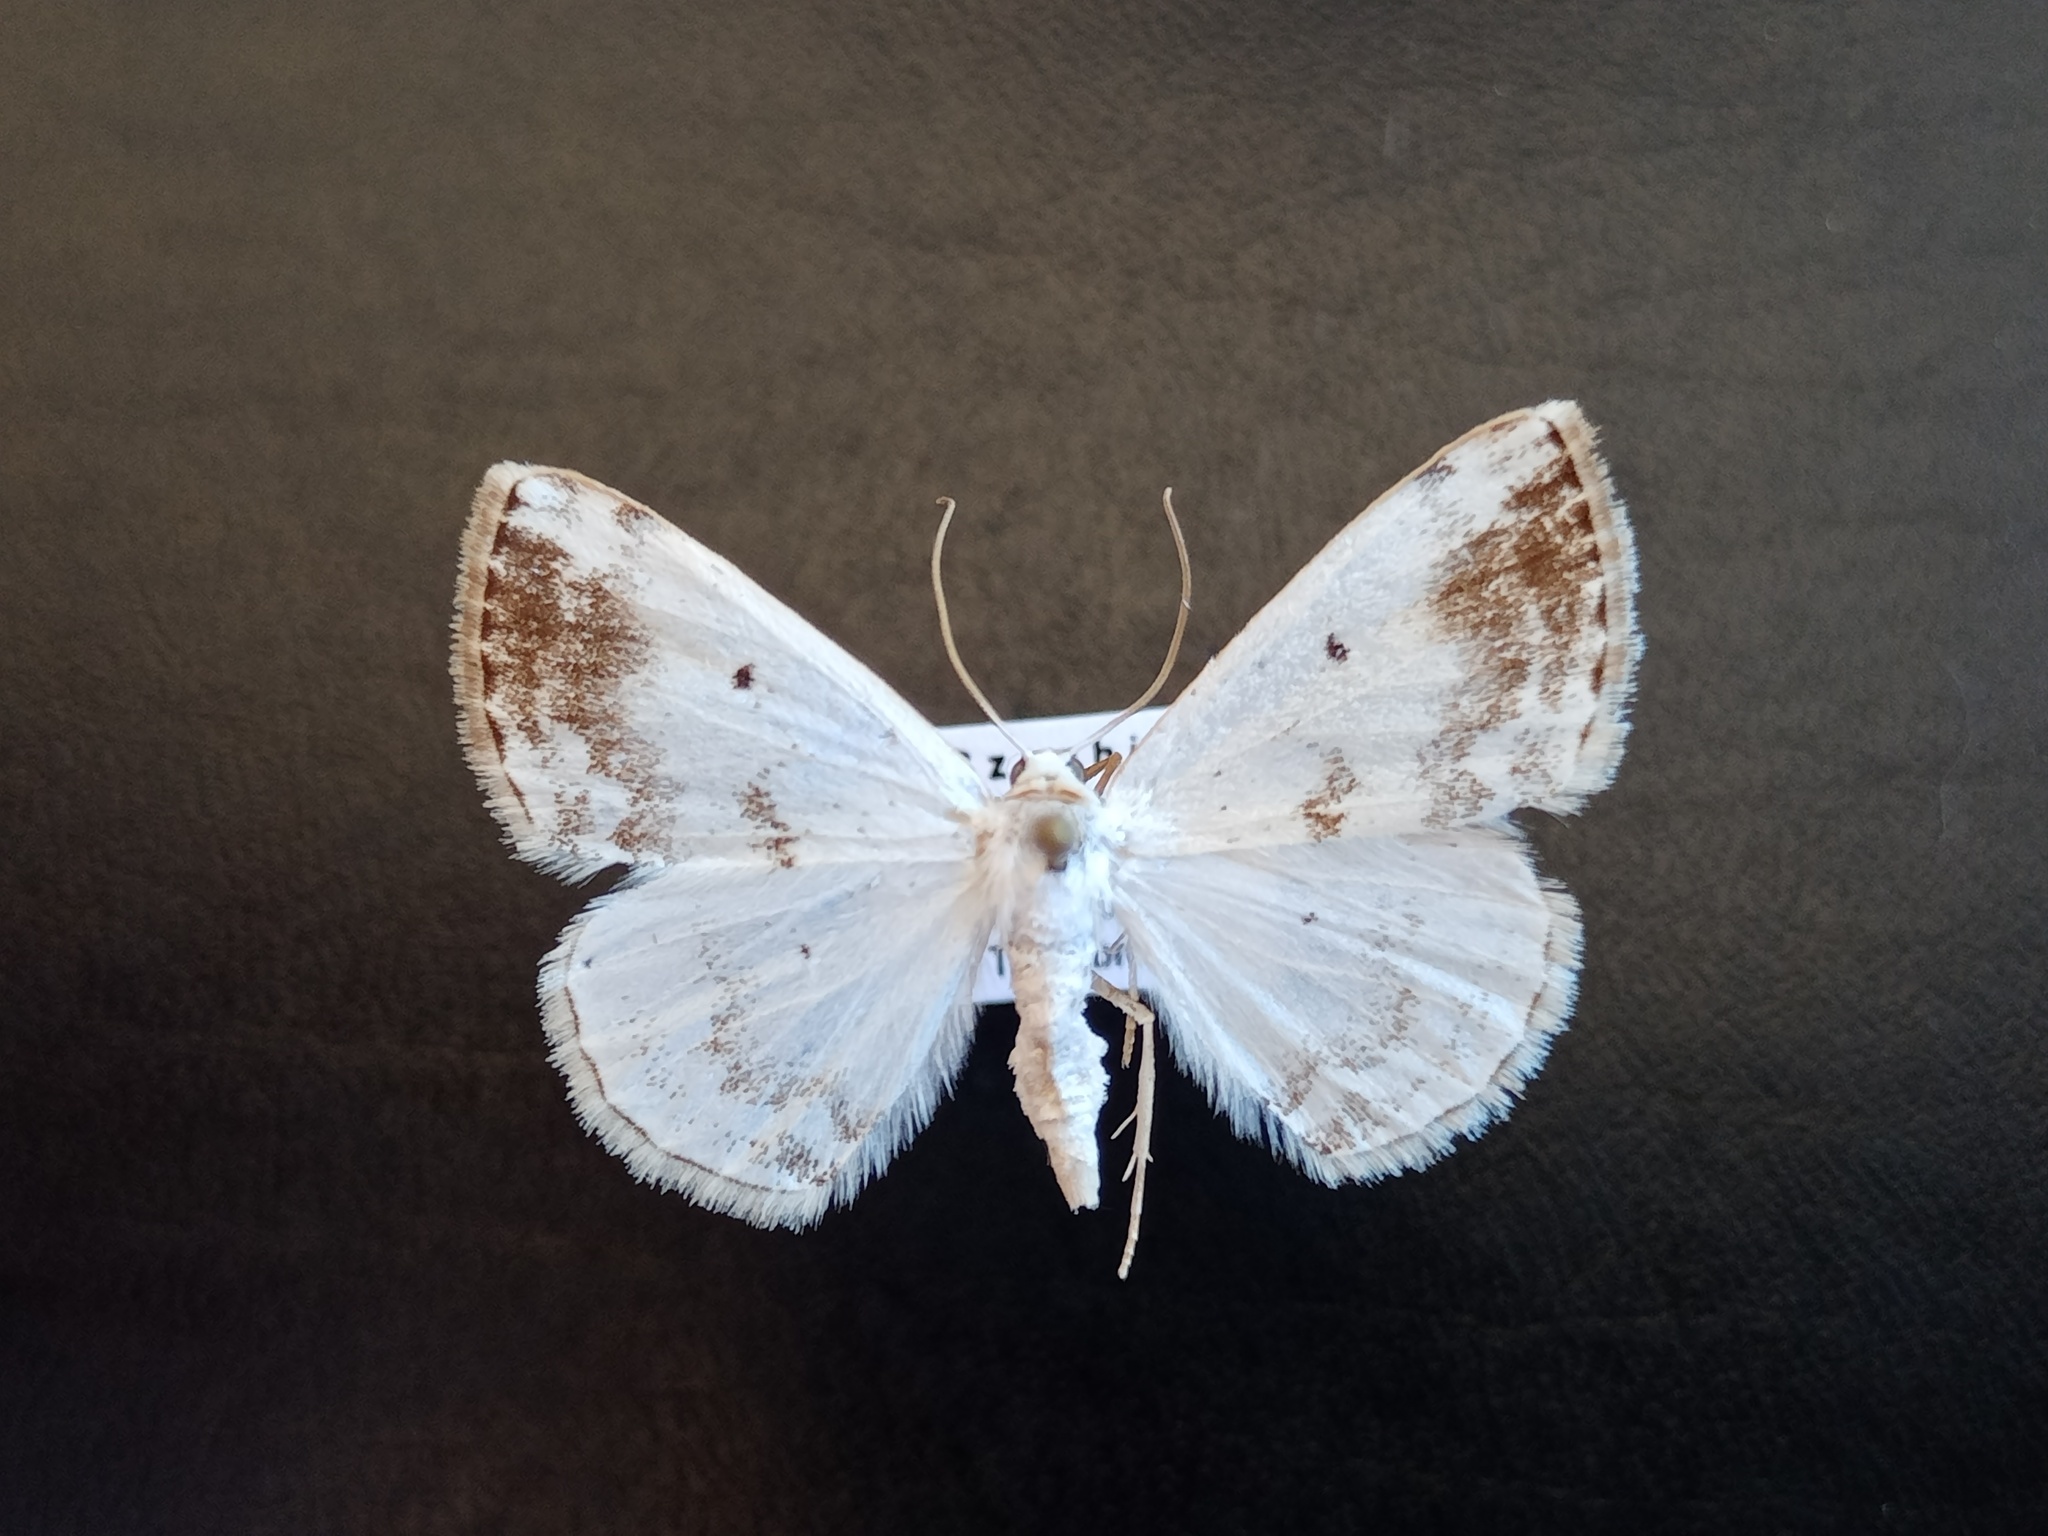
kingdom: Animalia
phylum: Arthropoda
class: Insecta
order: Lepidoptera
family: Geometridae
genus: Lomographa
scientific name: Lomographa temerata
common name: Clouded silver
